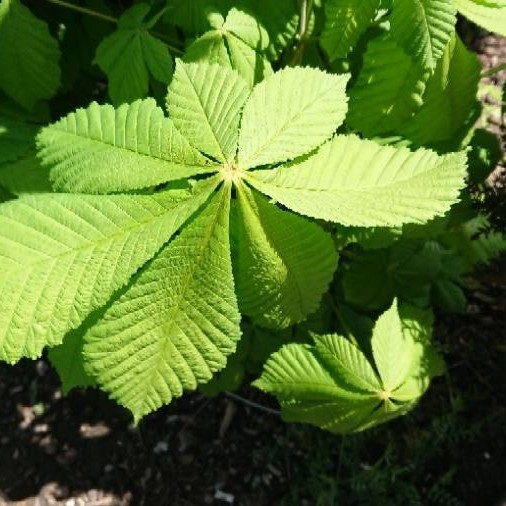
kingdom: Plantae
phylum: Tracheophyta
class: Magnoliopsida
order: Sapindales
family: Sapindaceae
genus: Aesculus
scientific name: Aesculus hippocastanum
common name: Horse-chestnut
